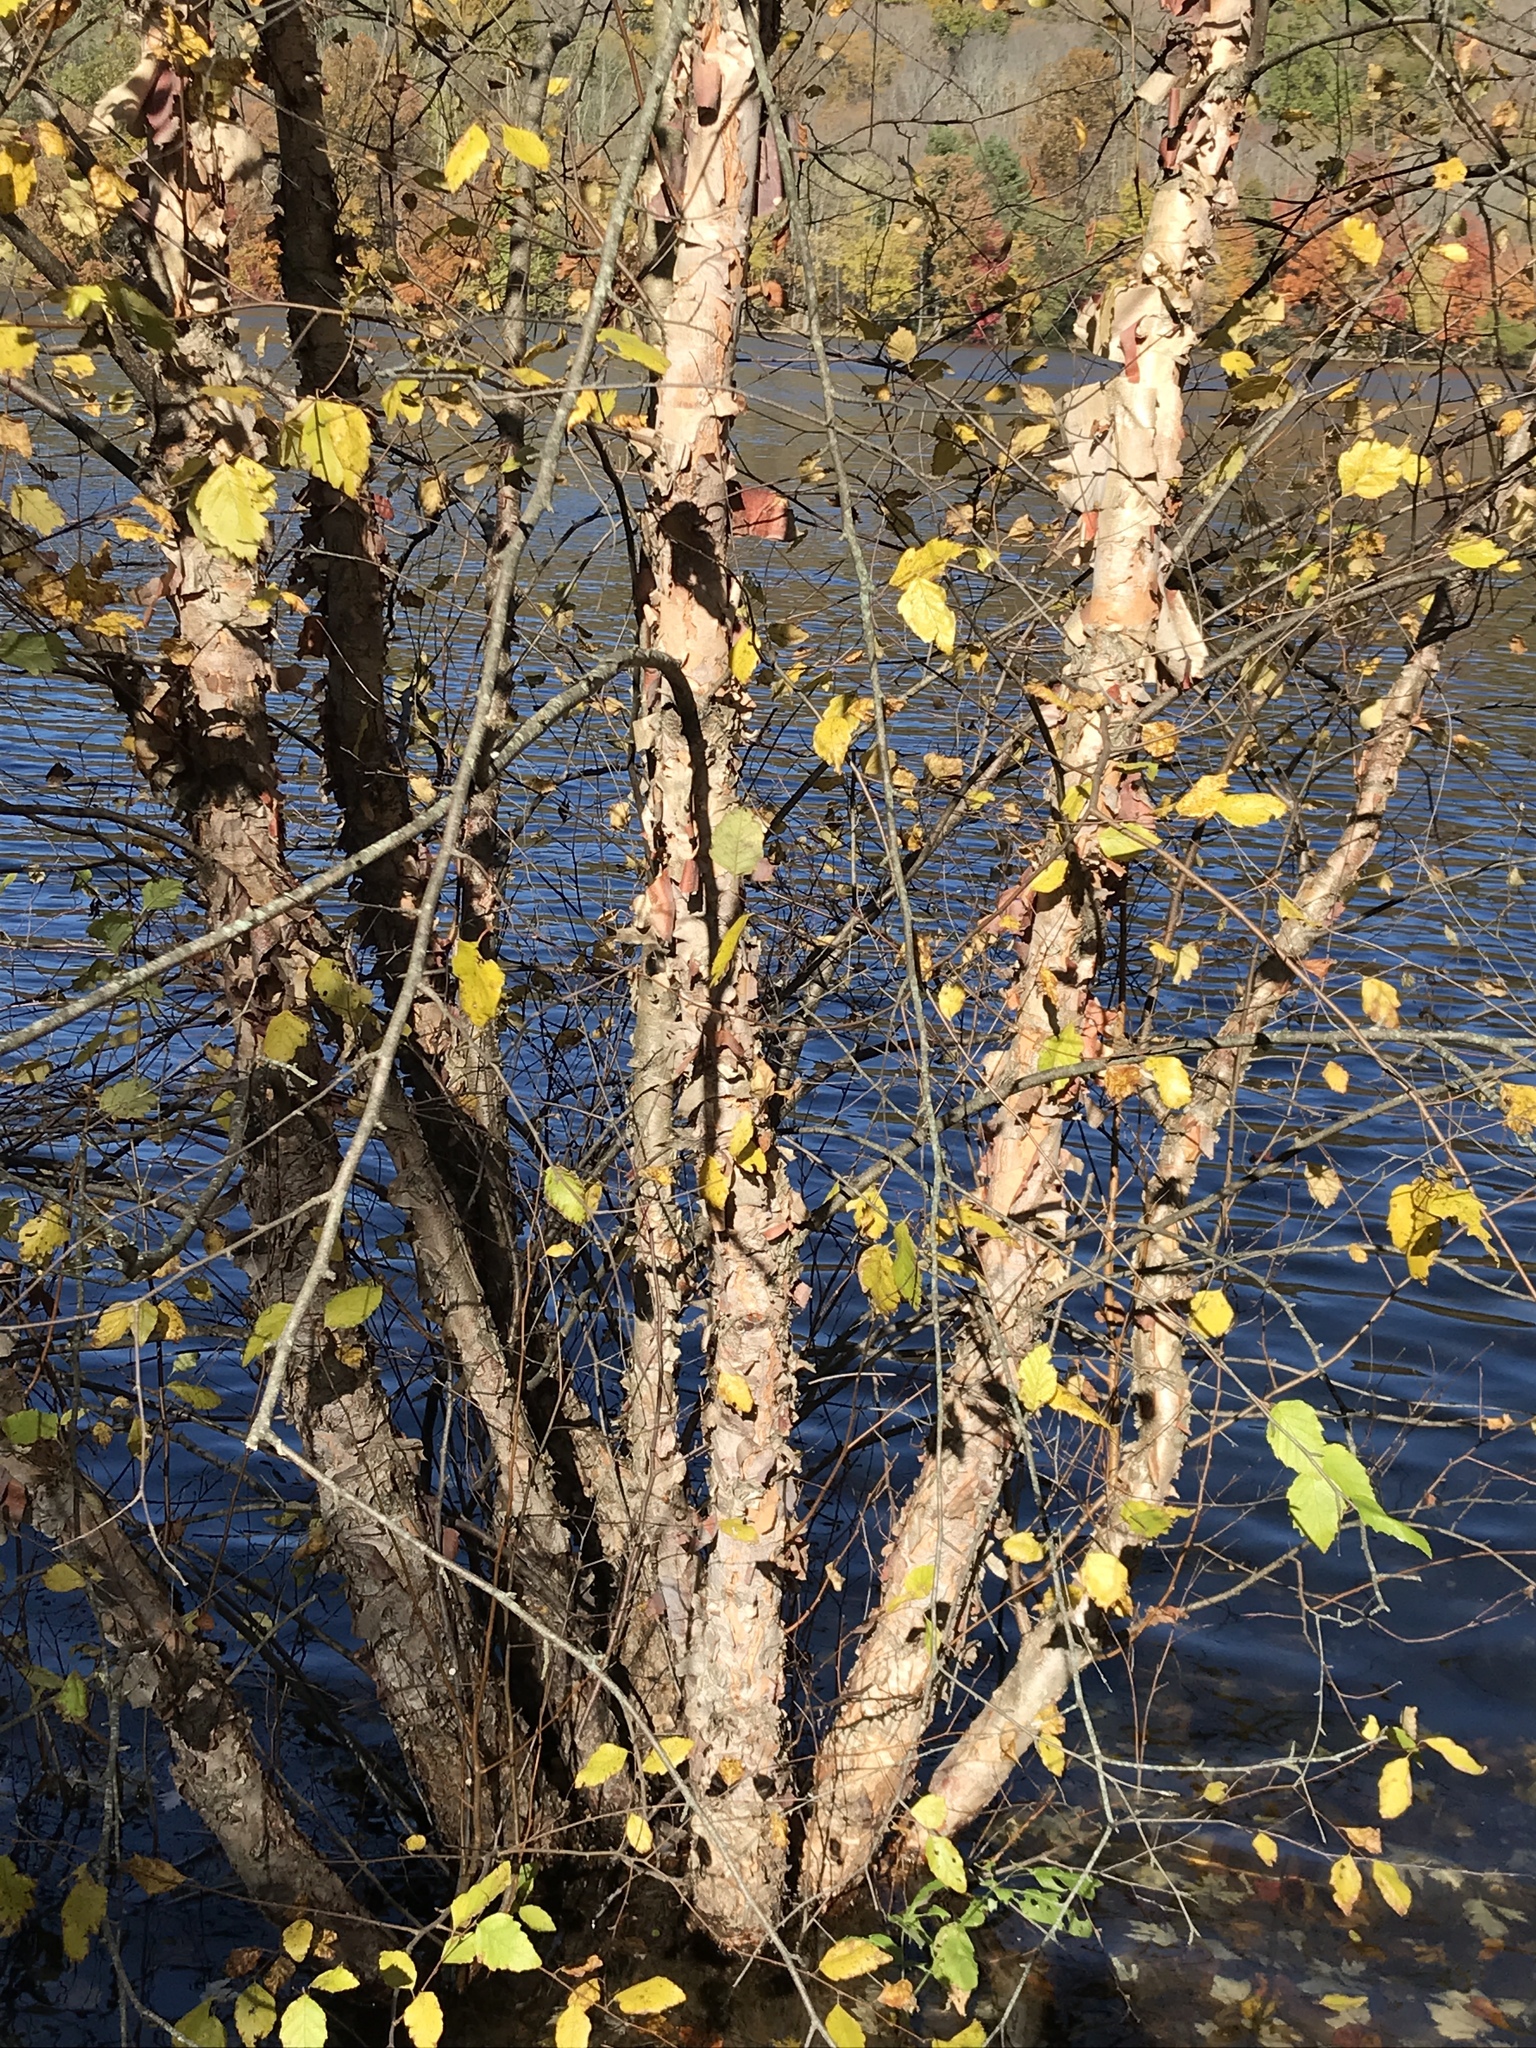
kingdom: Plantae
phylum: Tracheophyta
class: Magnoliopsida
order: Fagales
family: Betulaceae
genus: Betula
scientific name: Betula nigra
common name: Black birch
